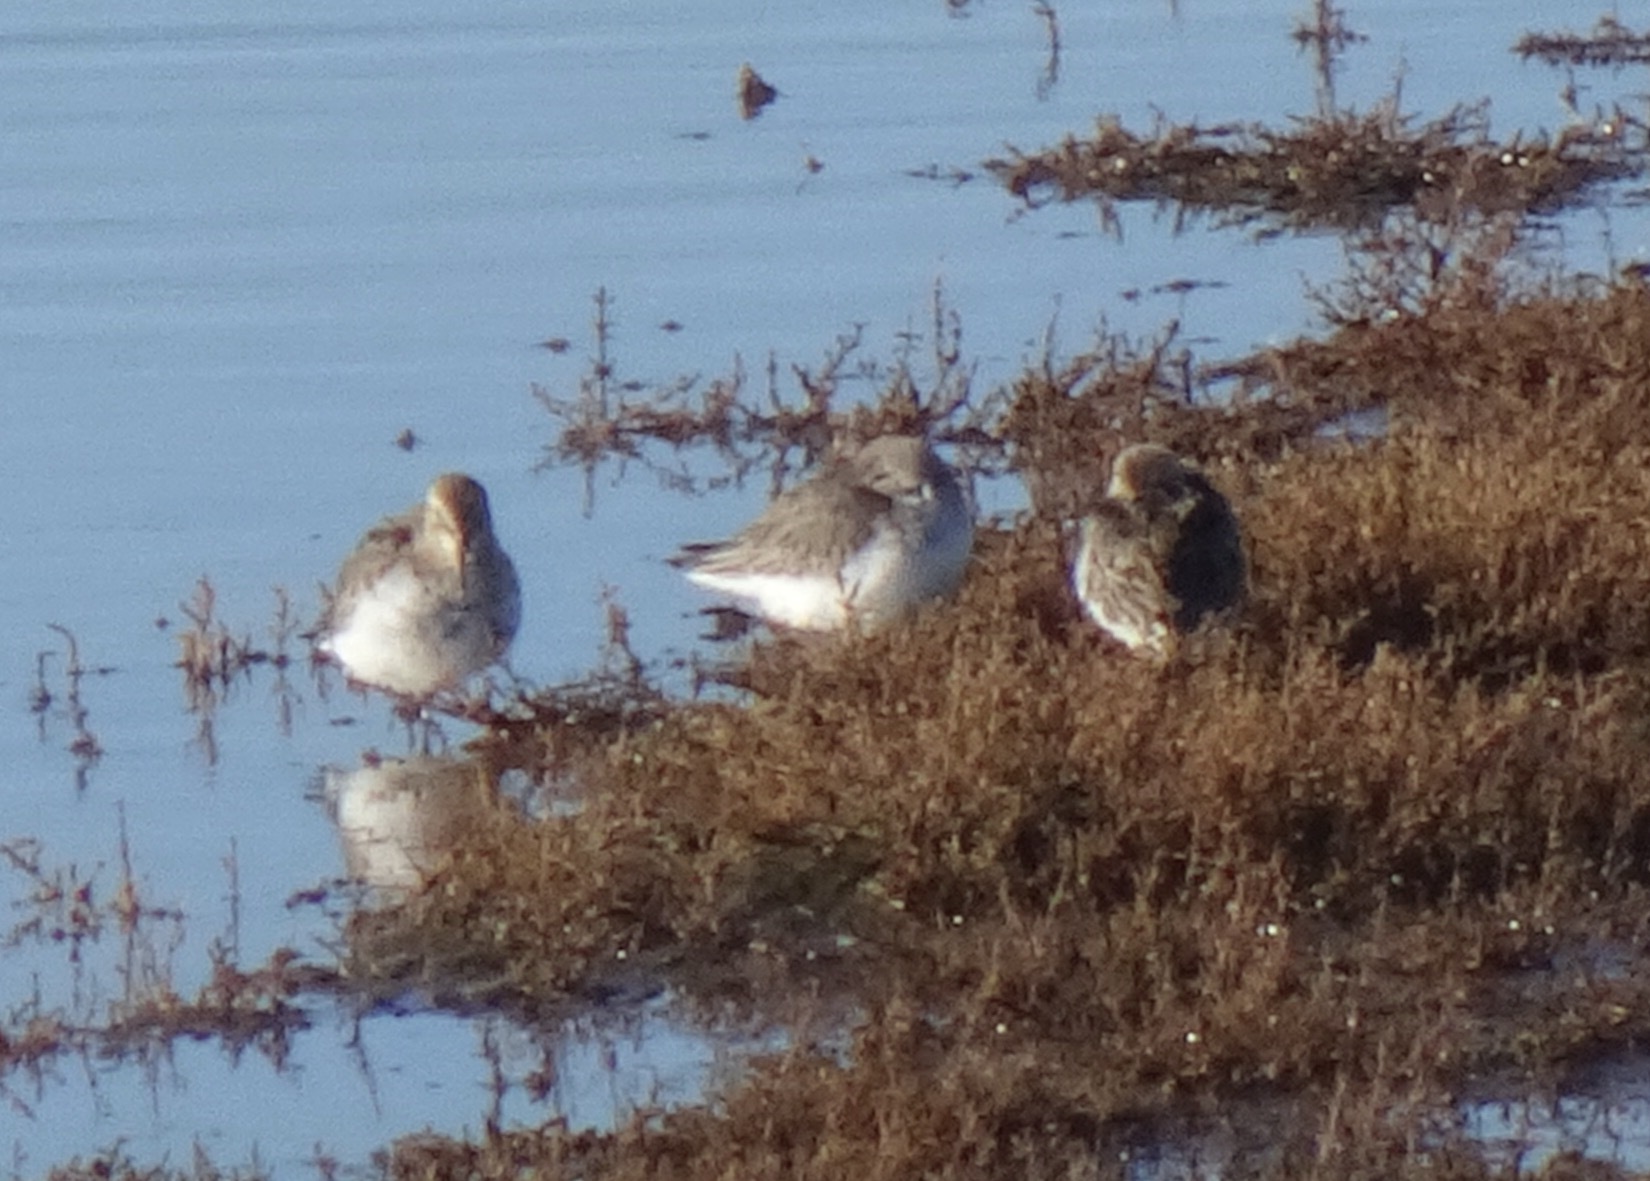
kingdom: Animalia
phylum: Chordata
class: Aves
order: Charadriiformes
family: Scolopacidae
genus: Calidris
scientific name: Calidris alpina
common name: Dunlin
